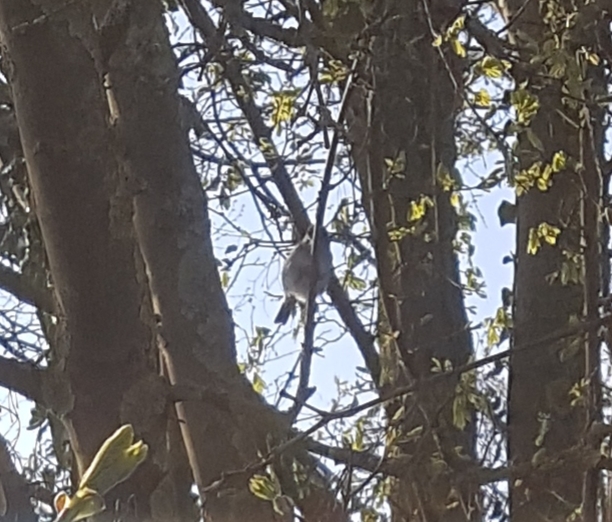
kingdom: Animalia
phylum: Chordata
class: Aves
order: Passeriformes
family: Sylviidae
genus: Sylvia
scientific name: Sylvia atricapilla
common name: Eurasian blackcap
